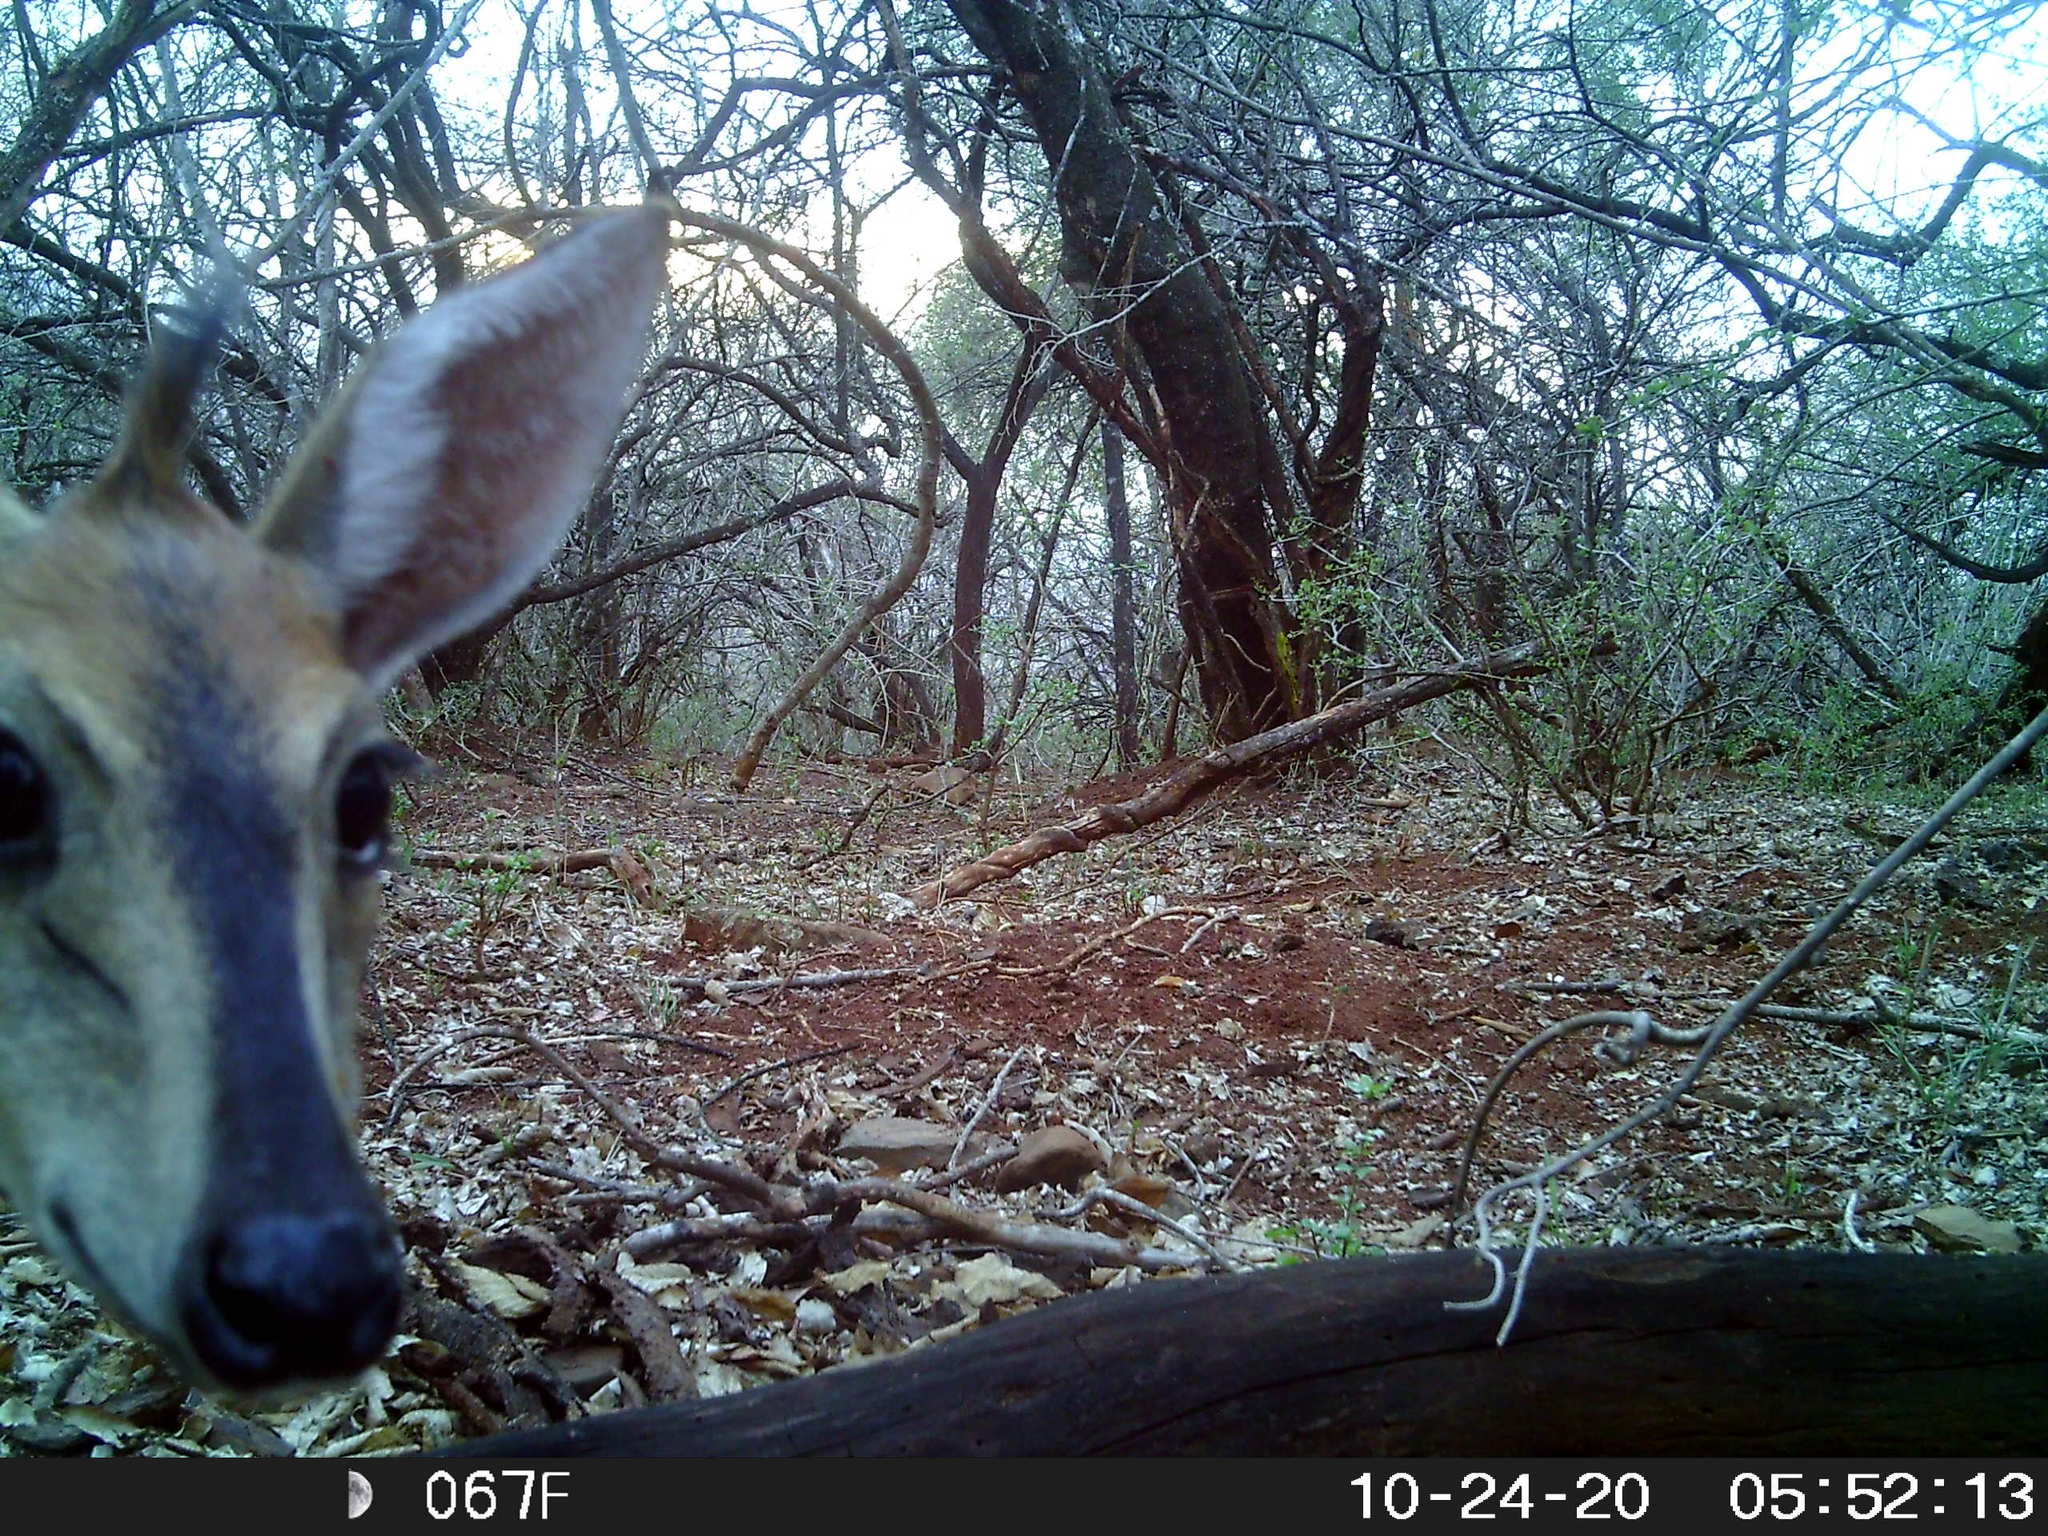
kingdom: Animalia
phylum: Chordata
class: Mammalia
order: Artiodactyla
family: Bovidae
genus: Sylvicapra
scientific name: Sylvicapra grimmia
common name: Bush duiker
